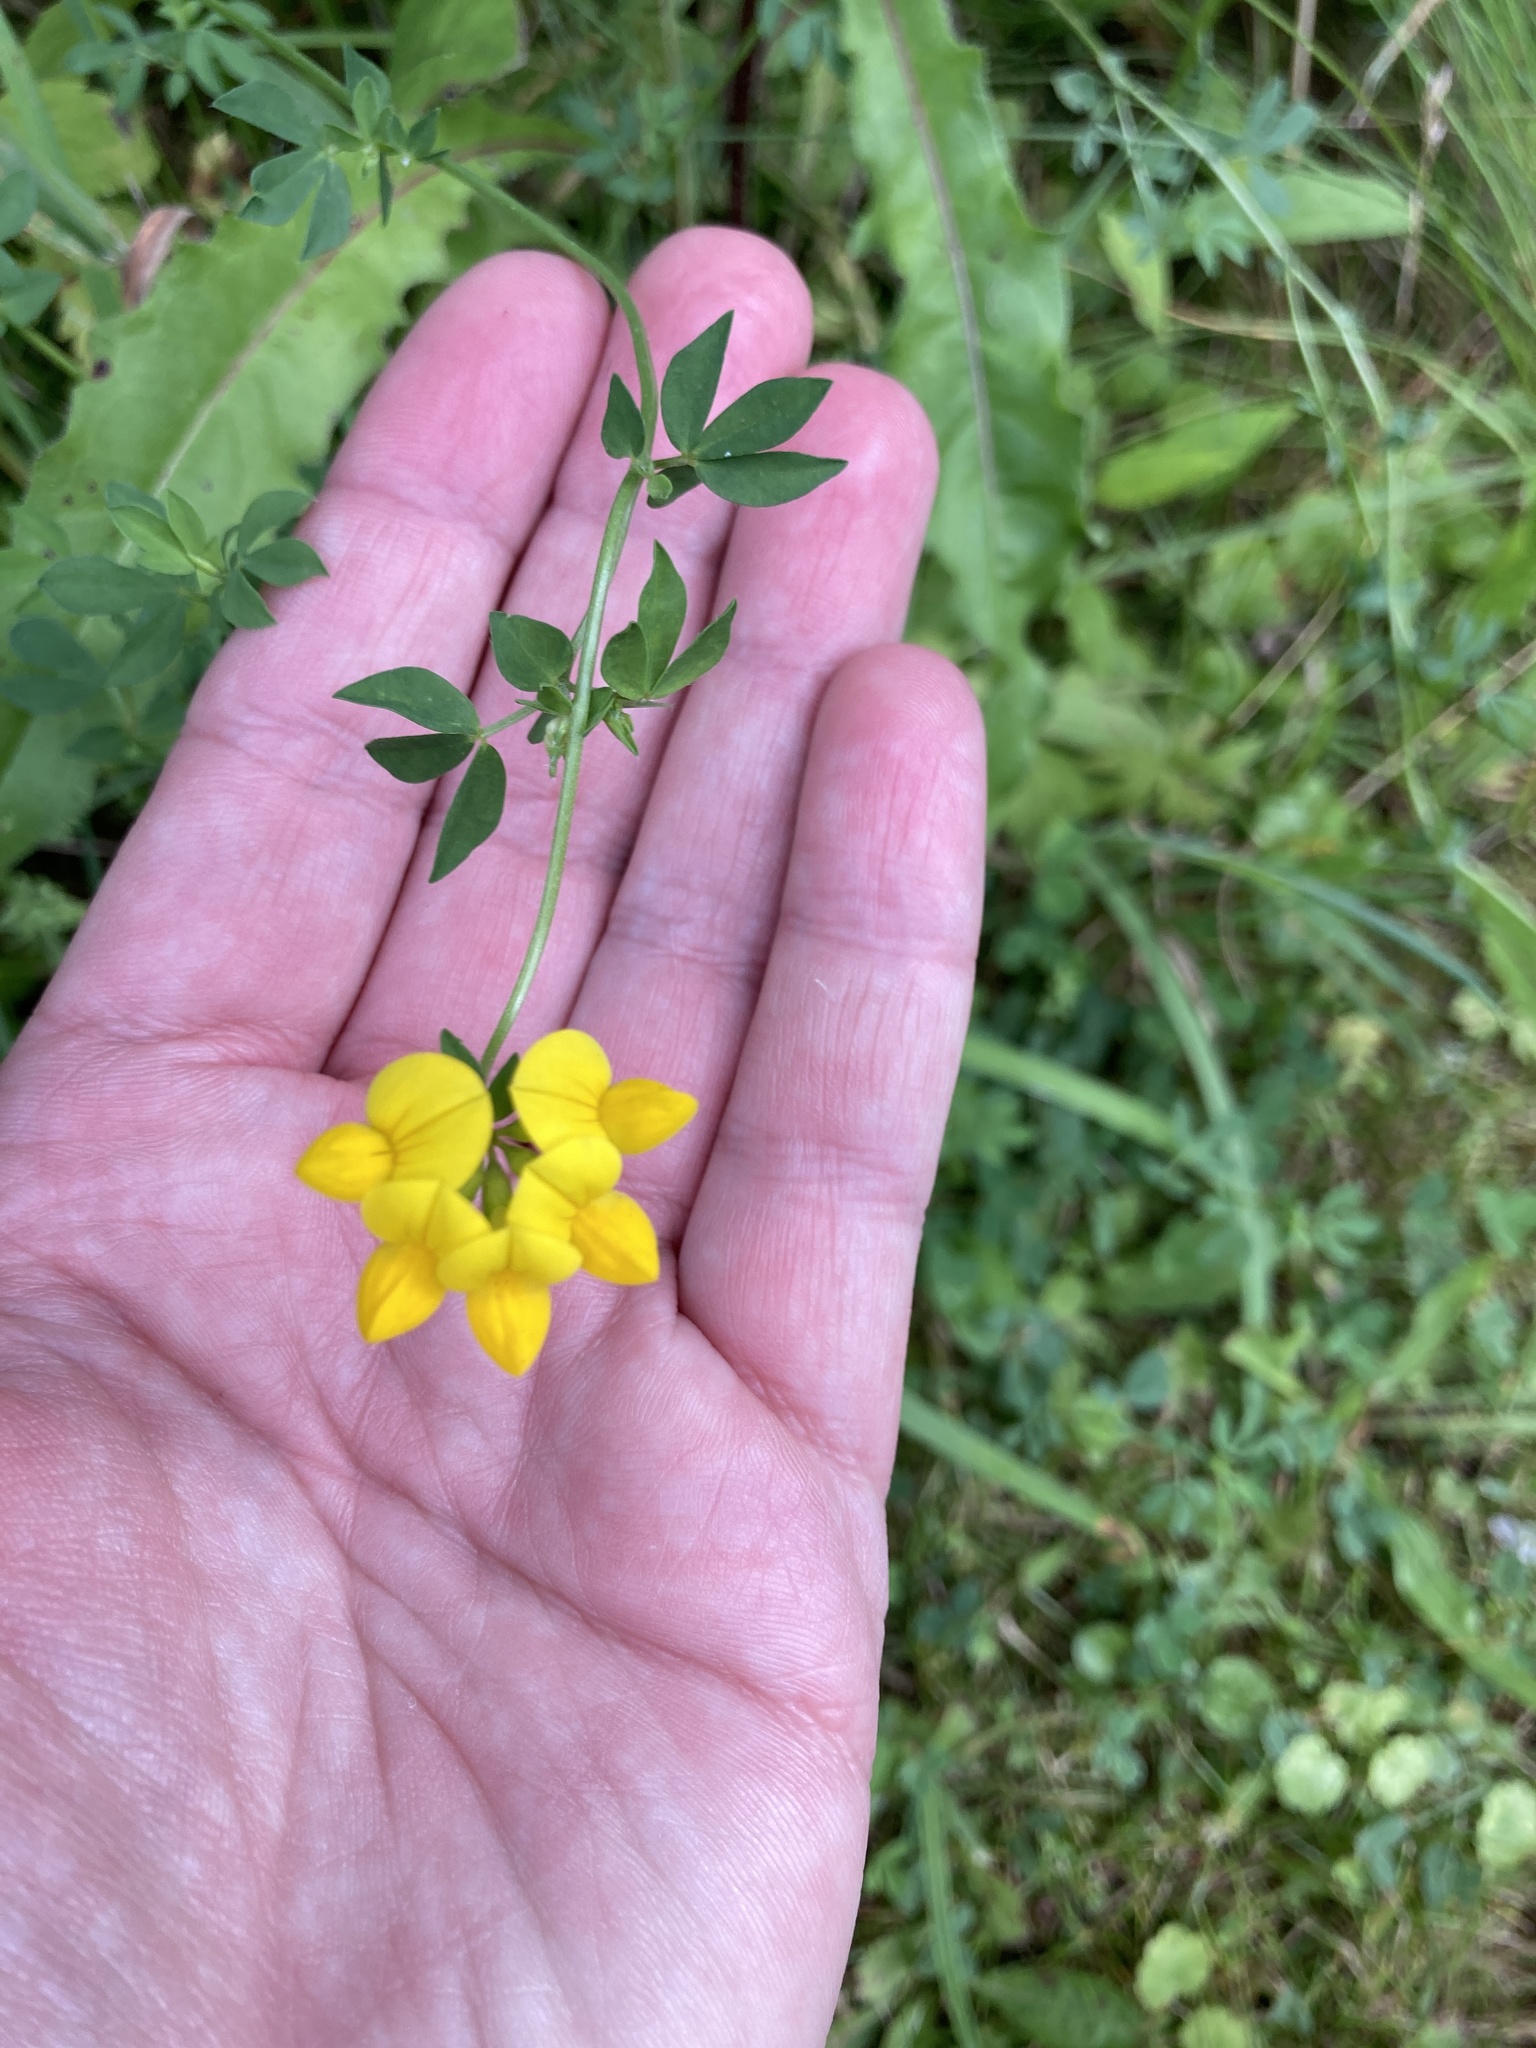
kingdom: Plantae
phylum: Tracheophyta
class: Magnoliopsida
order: Fabales
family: Fabaceae
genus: Lotus
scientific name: Lotus corniculatus
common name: Common bird's-foot-trefoil
